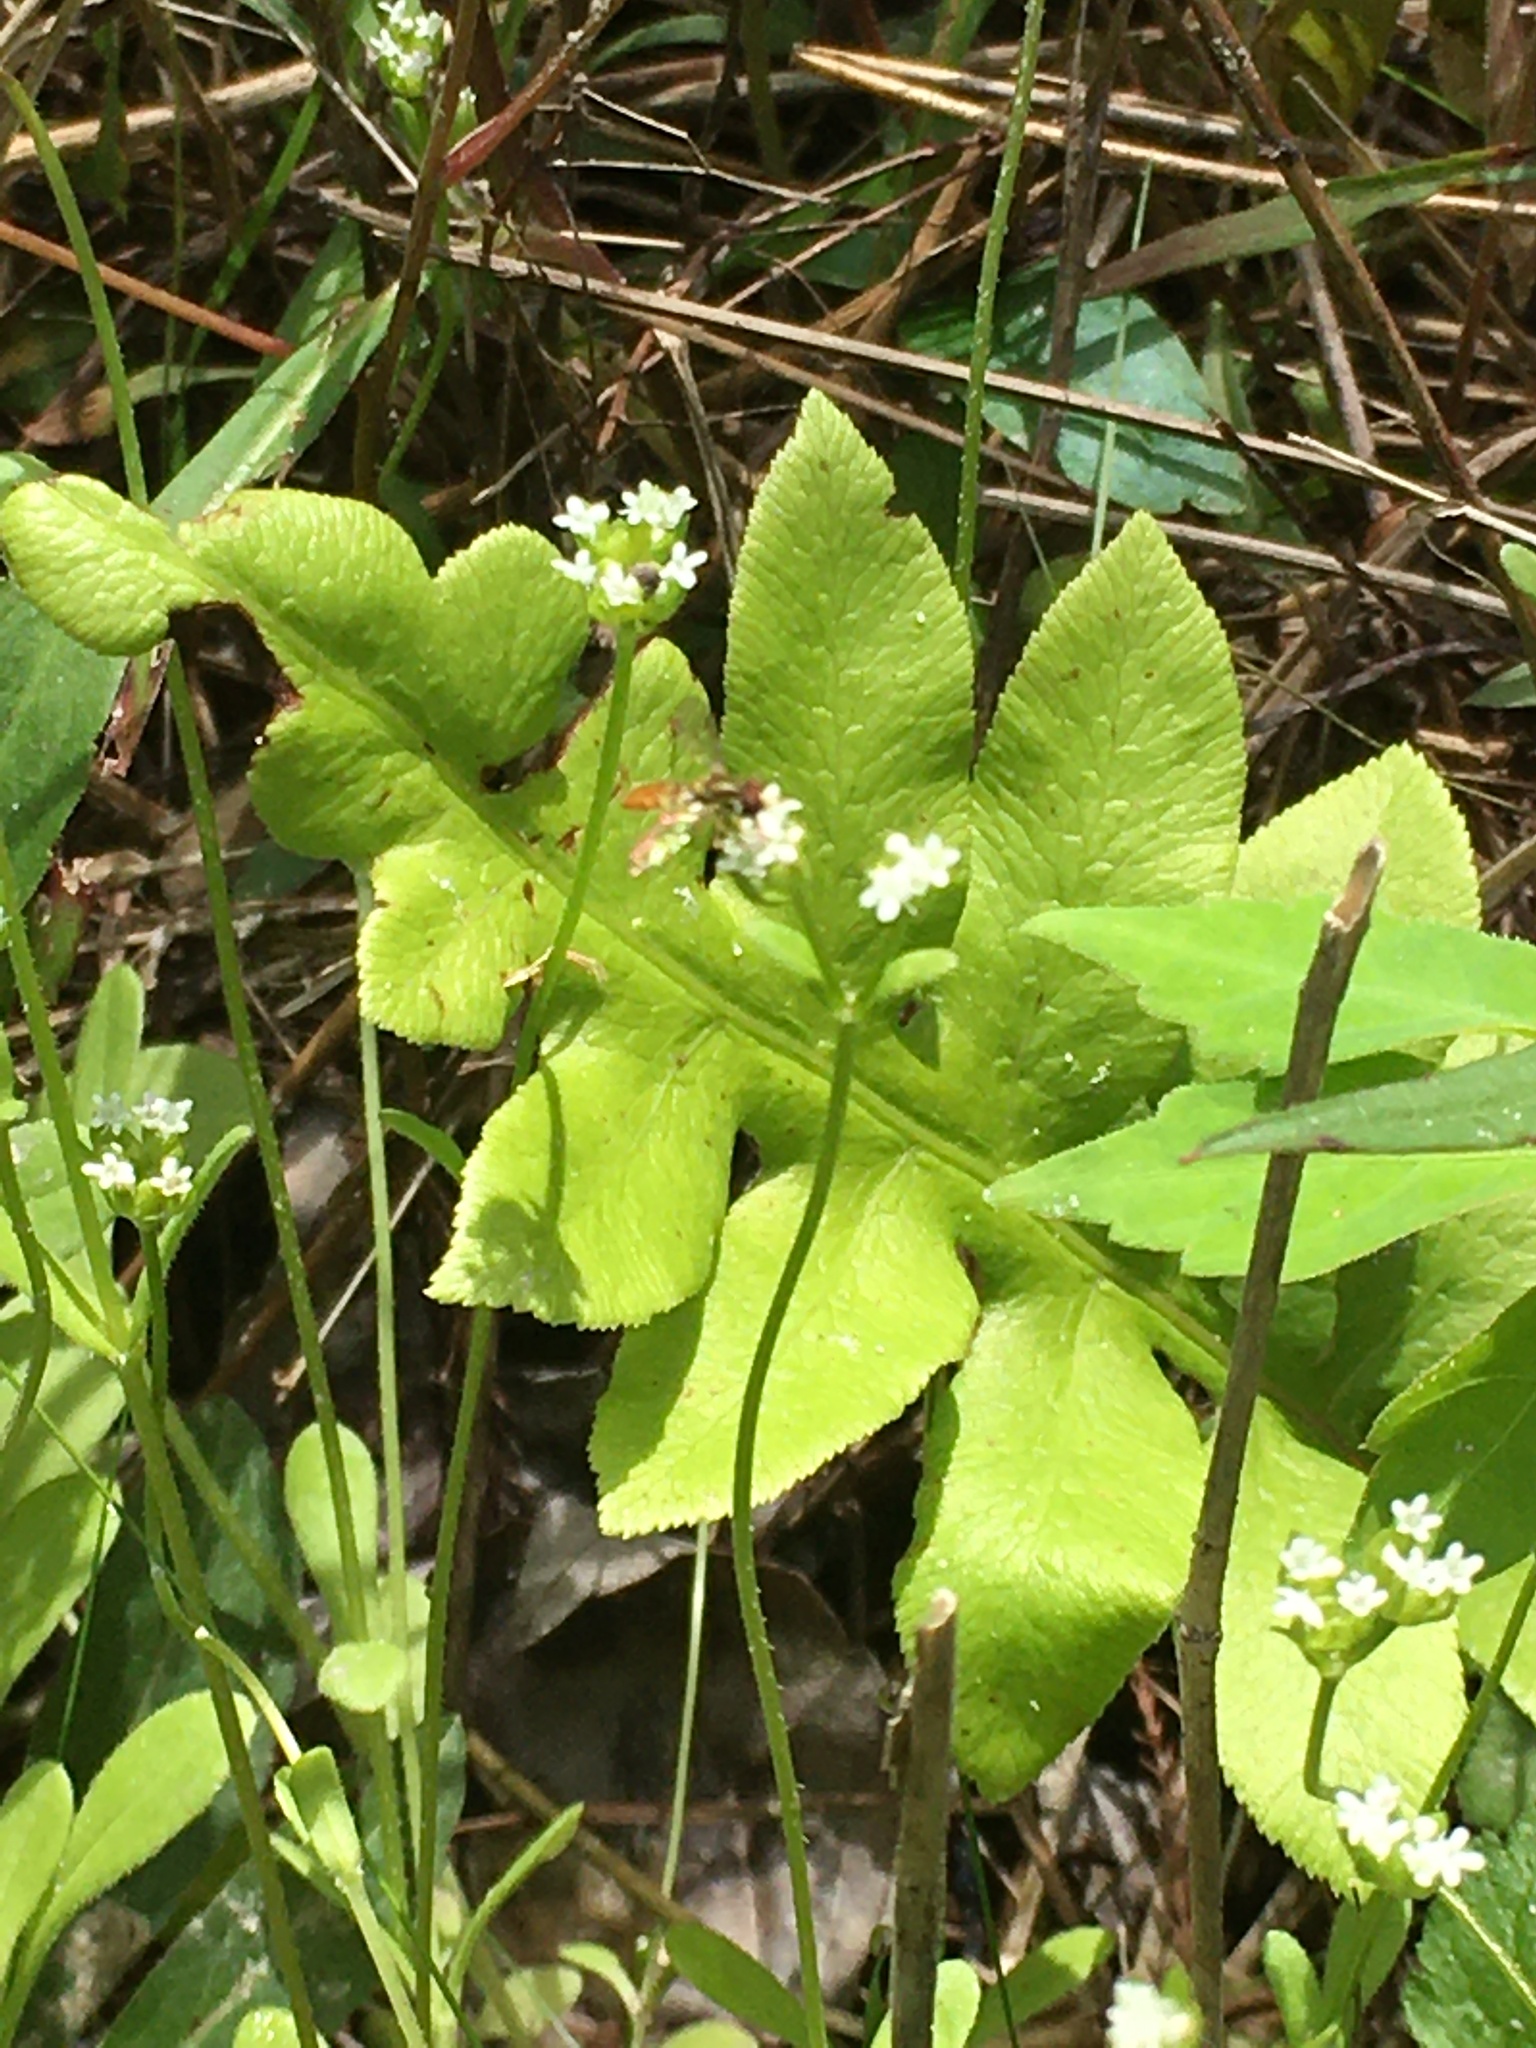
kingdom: Animalia
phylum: Arthropoda
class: Insecta
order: Diptera
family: Syrphidae
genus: Toxomerus
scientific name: Toxomerus marginatus
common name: Syrphid fly
